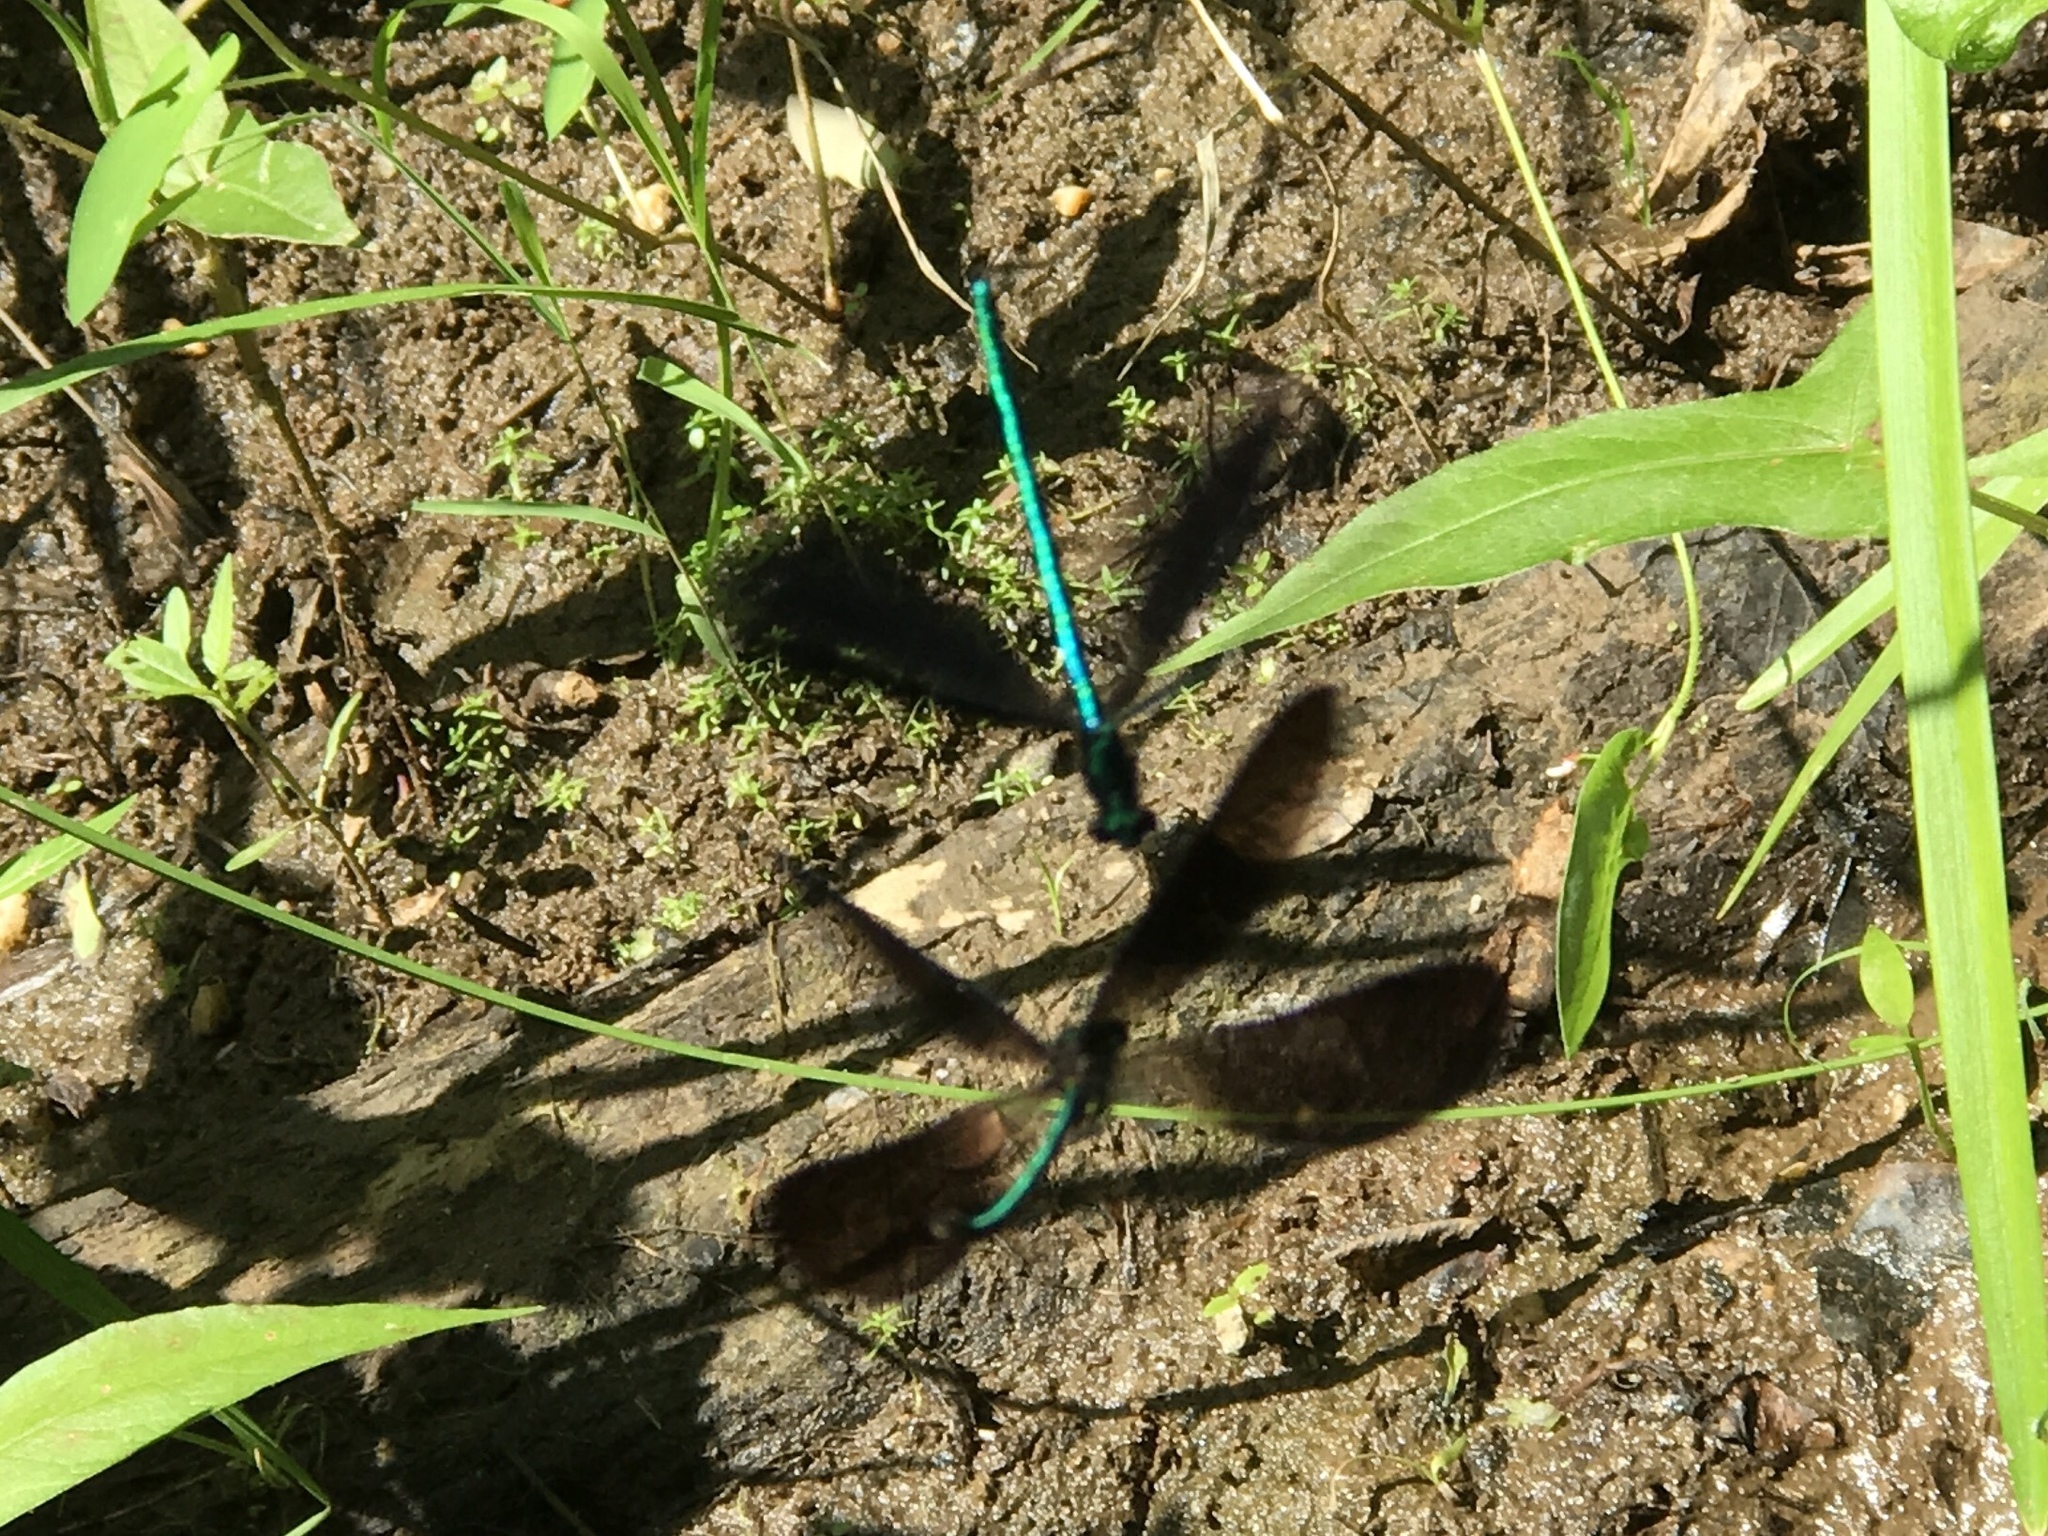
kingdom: Animalia
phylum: Arthropoda
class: Insecta
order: Odonata
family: Calopterygidae
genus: Calopteryx
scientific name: Calopteryx maculata
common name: Ebony jewelwing
